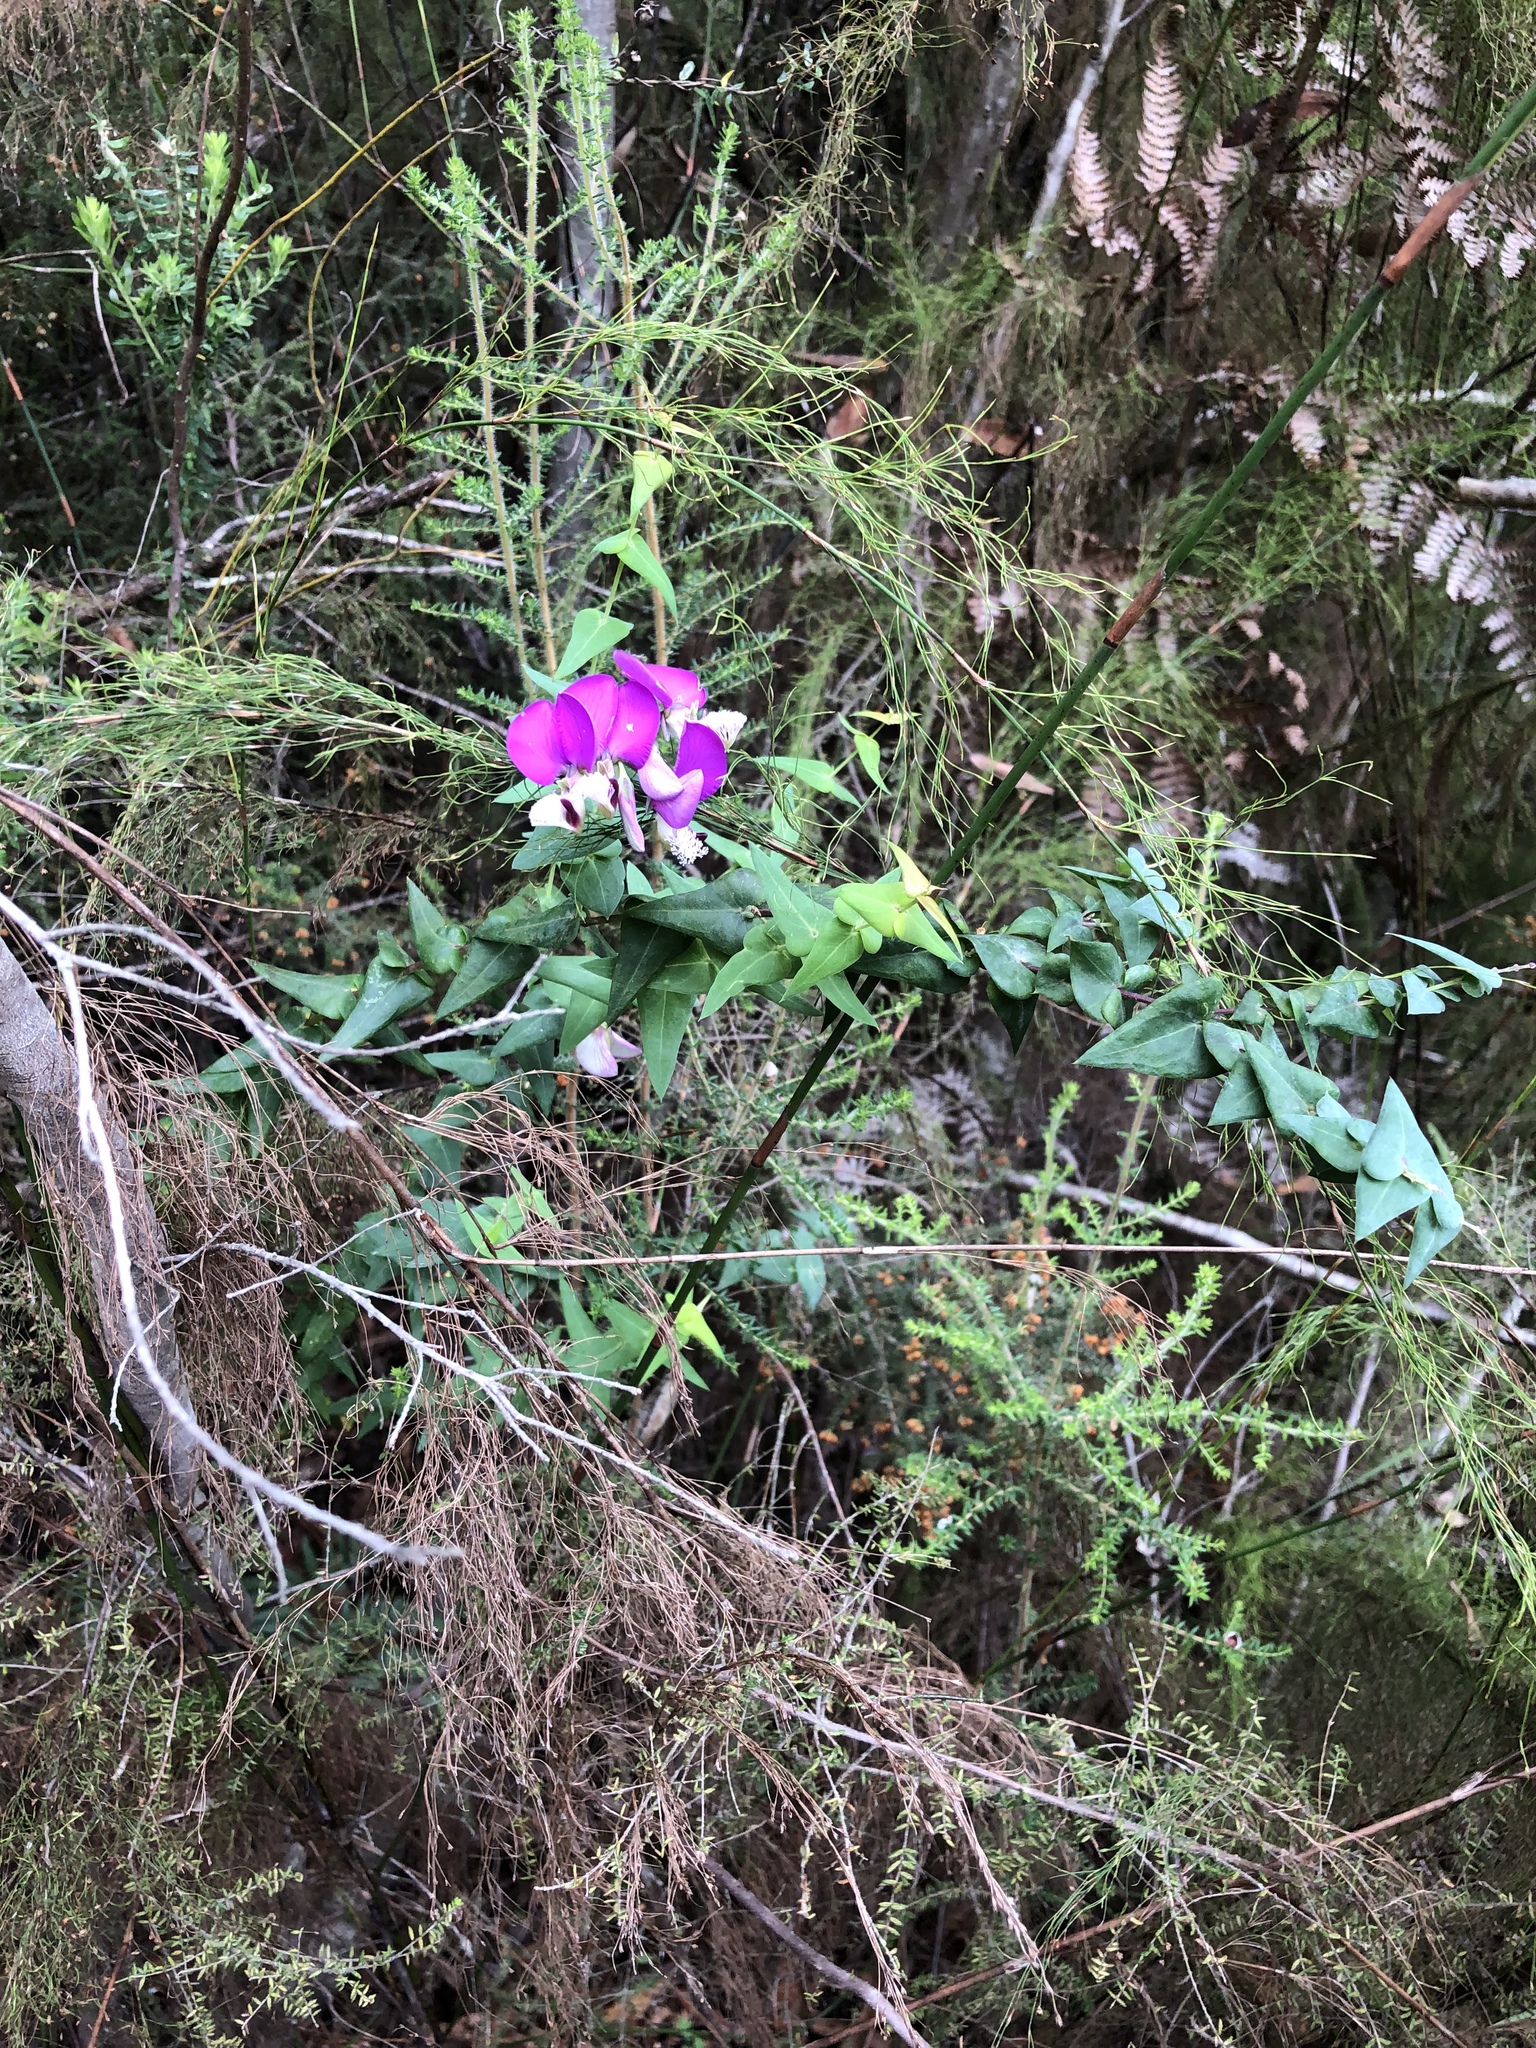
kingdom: Plantae
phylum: Tracheophyta
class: Magnoliopsida
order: Fabales
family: Polygalaceae
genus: Polygala
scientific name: Polygala fruticosa
